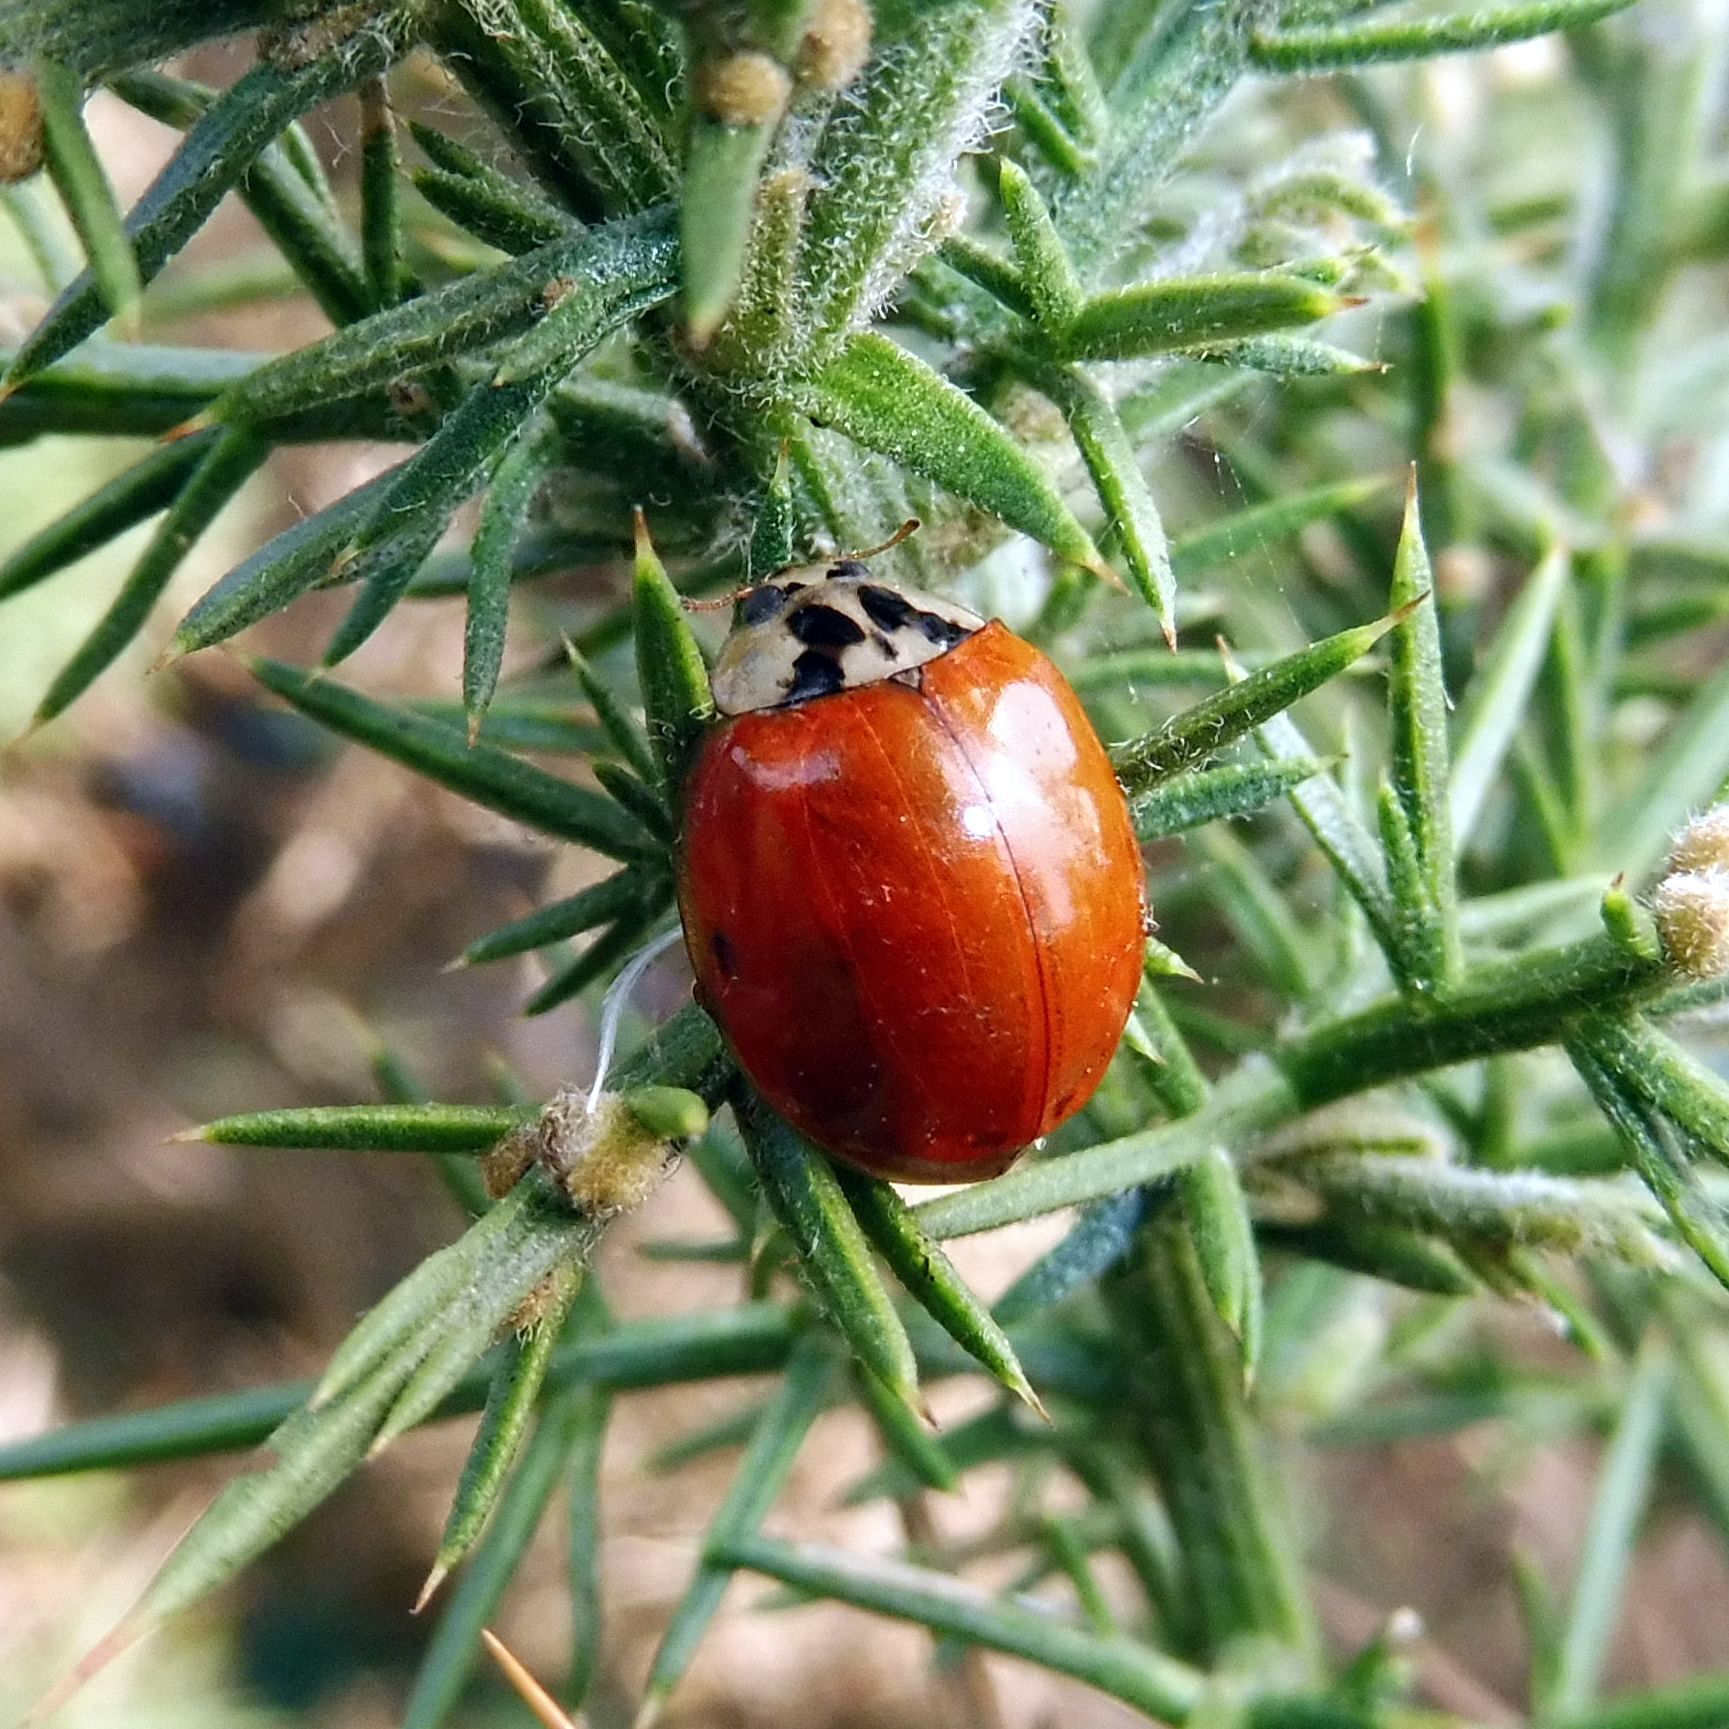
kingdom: Animalia
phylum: Arthropoda
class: Insecta
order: Coleoptera
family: Coccinellidae
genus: Harmonia
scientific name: Harmonia axyridis
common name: Harlequin ladybird
